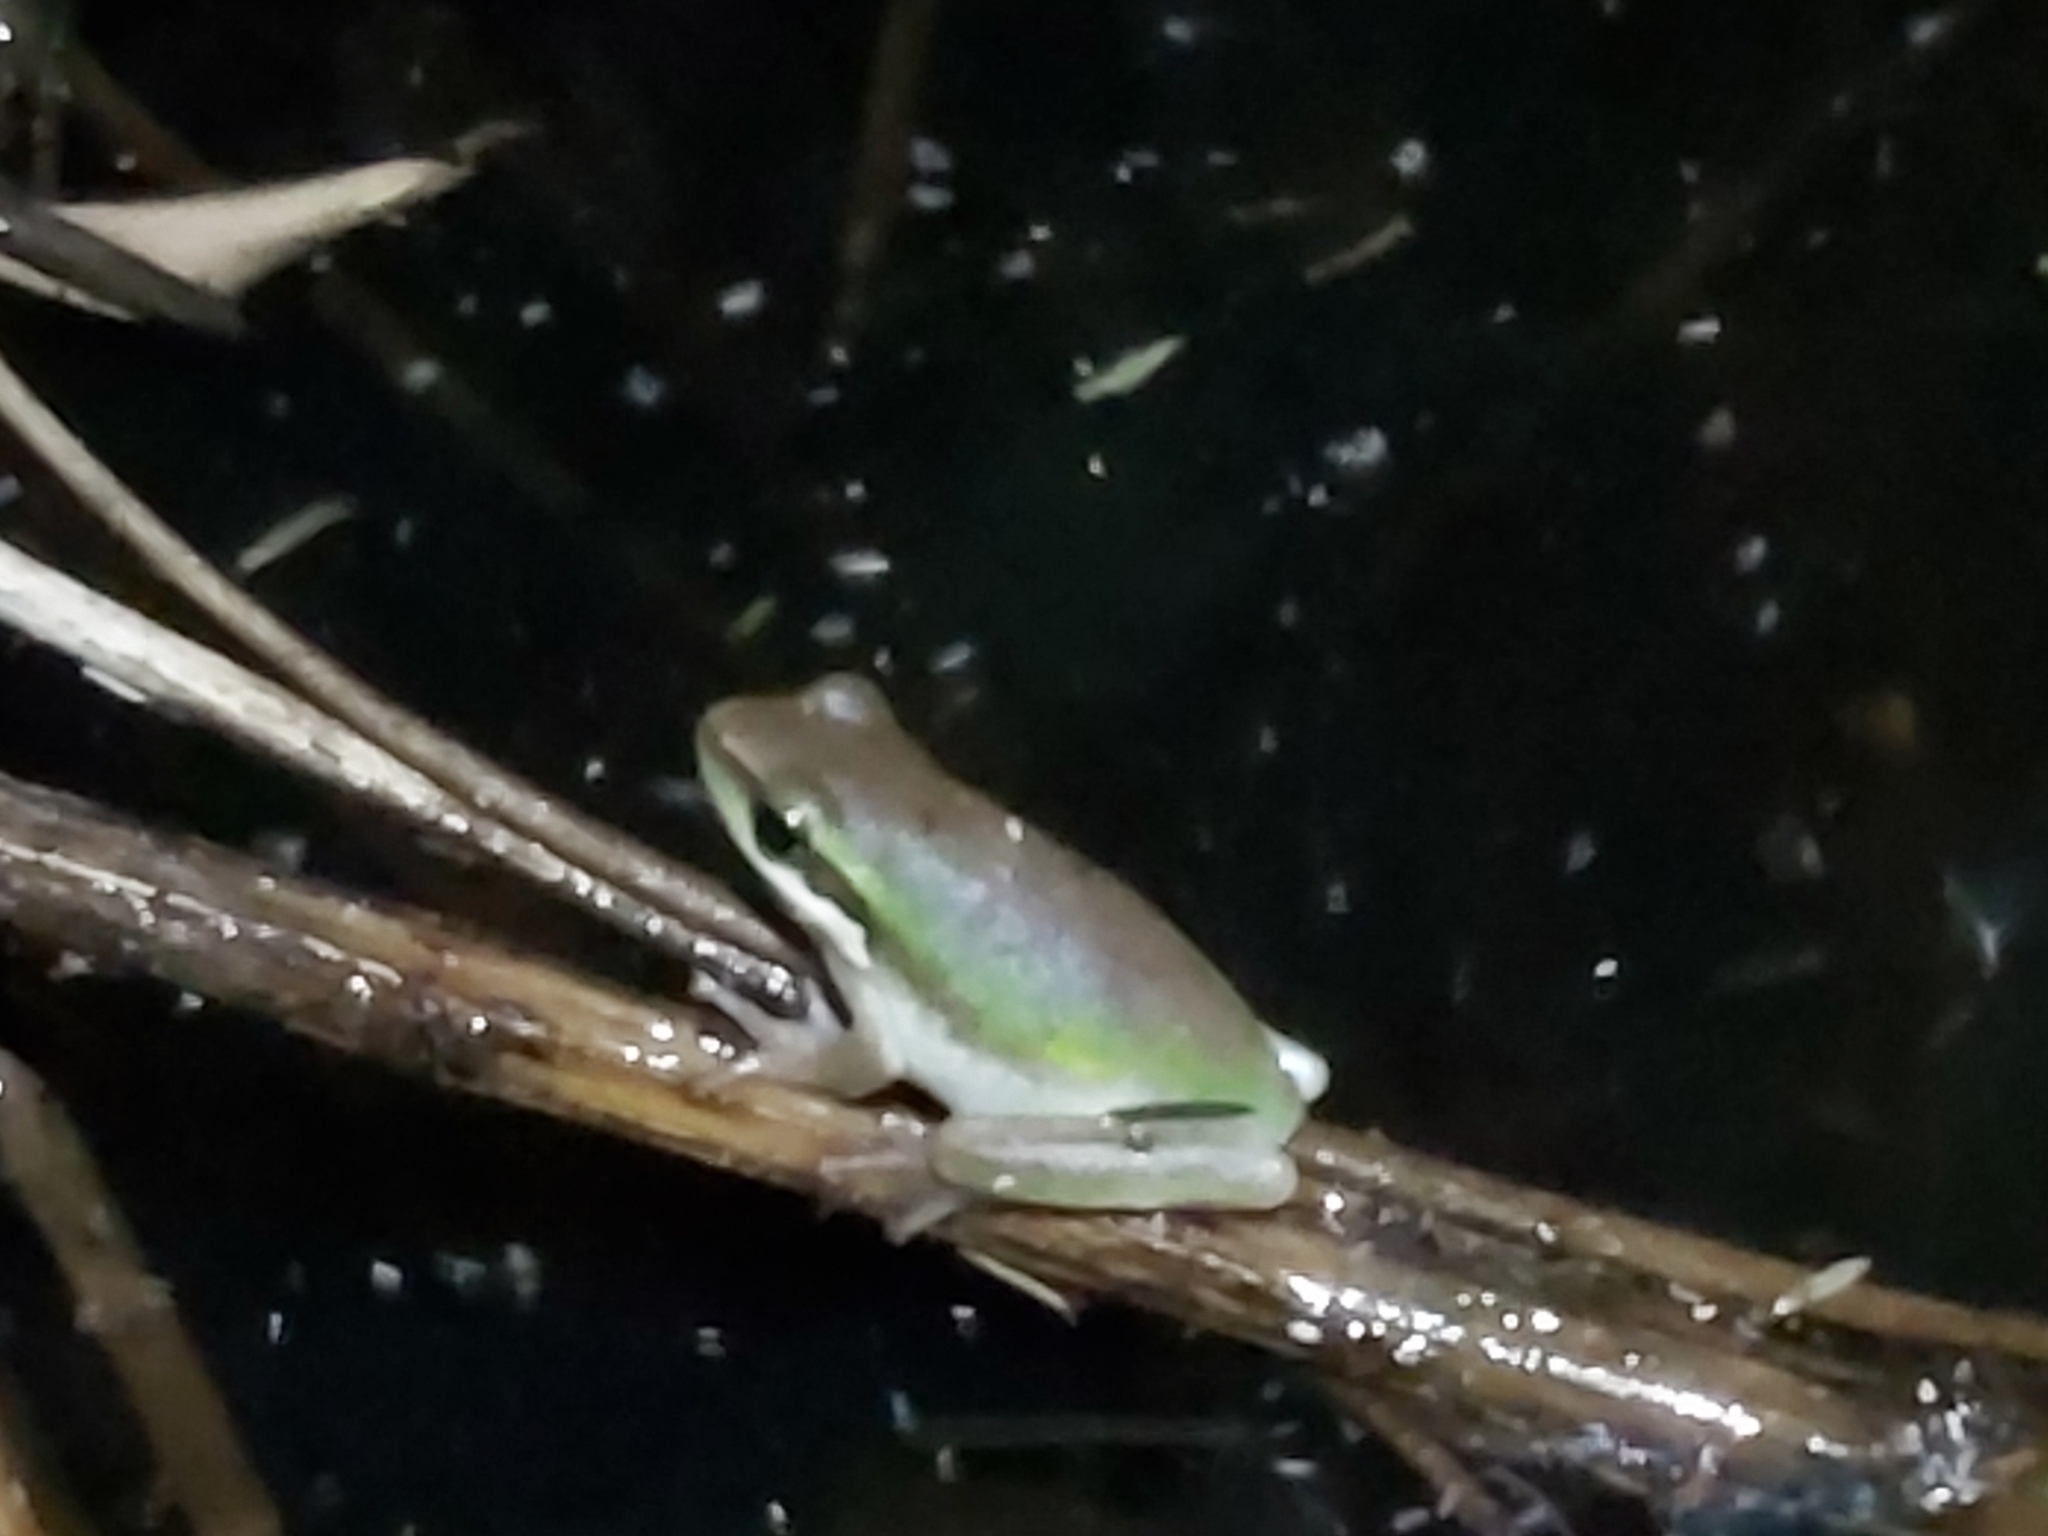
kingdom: Animalia
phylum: Chordata
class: Amphibia
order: Anura
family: Pelodryadidae
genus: Litoria
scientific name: Litoria fallax
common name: Eastern dwarf treefrog
